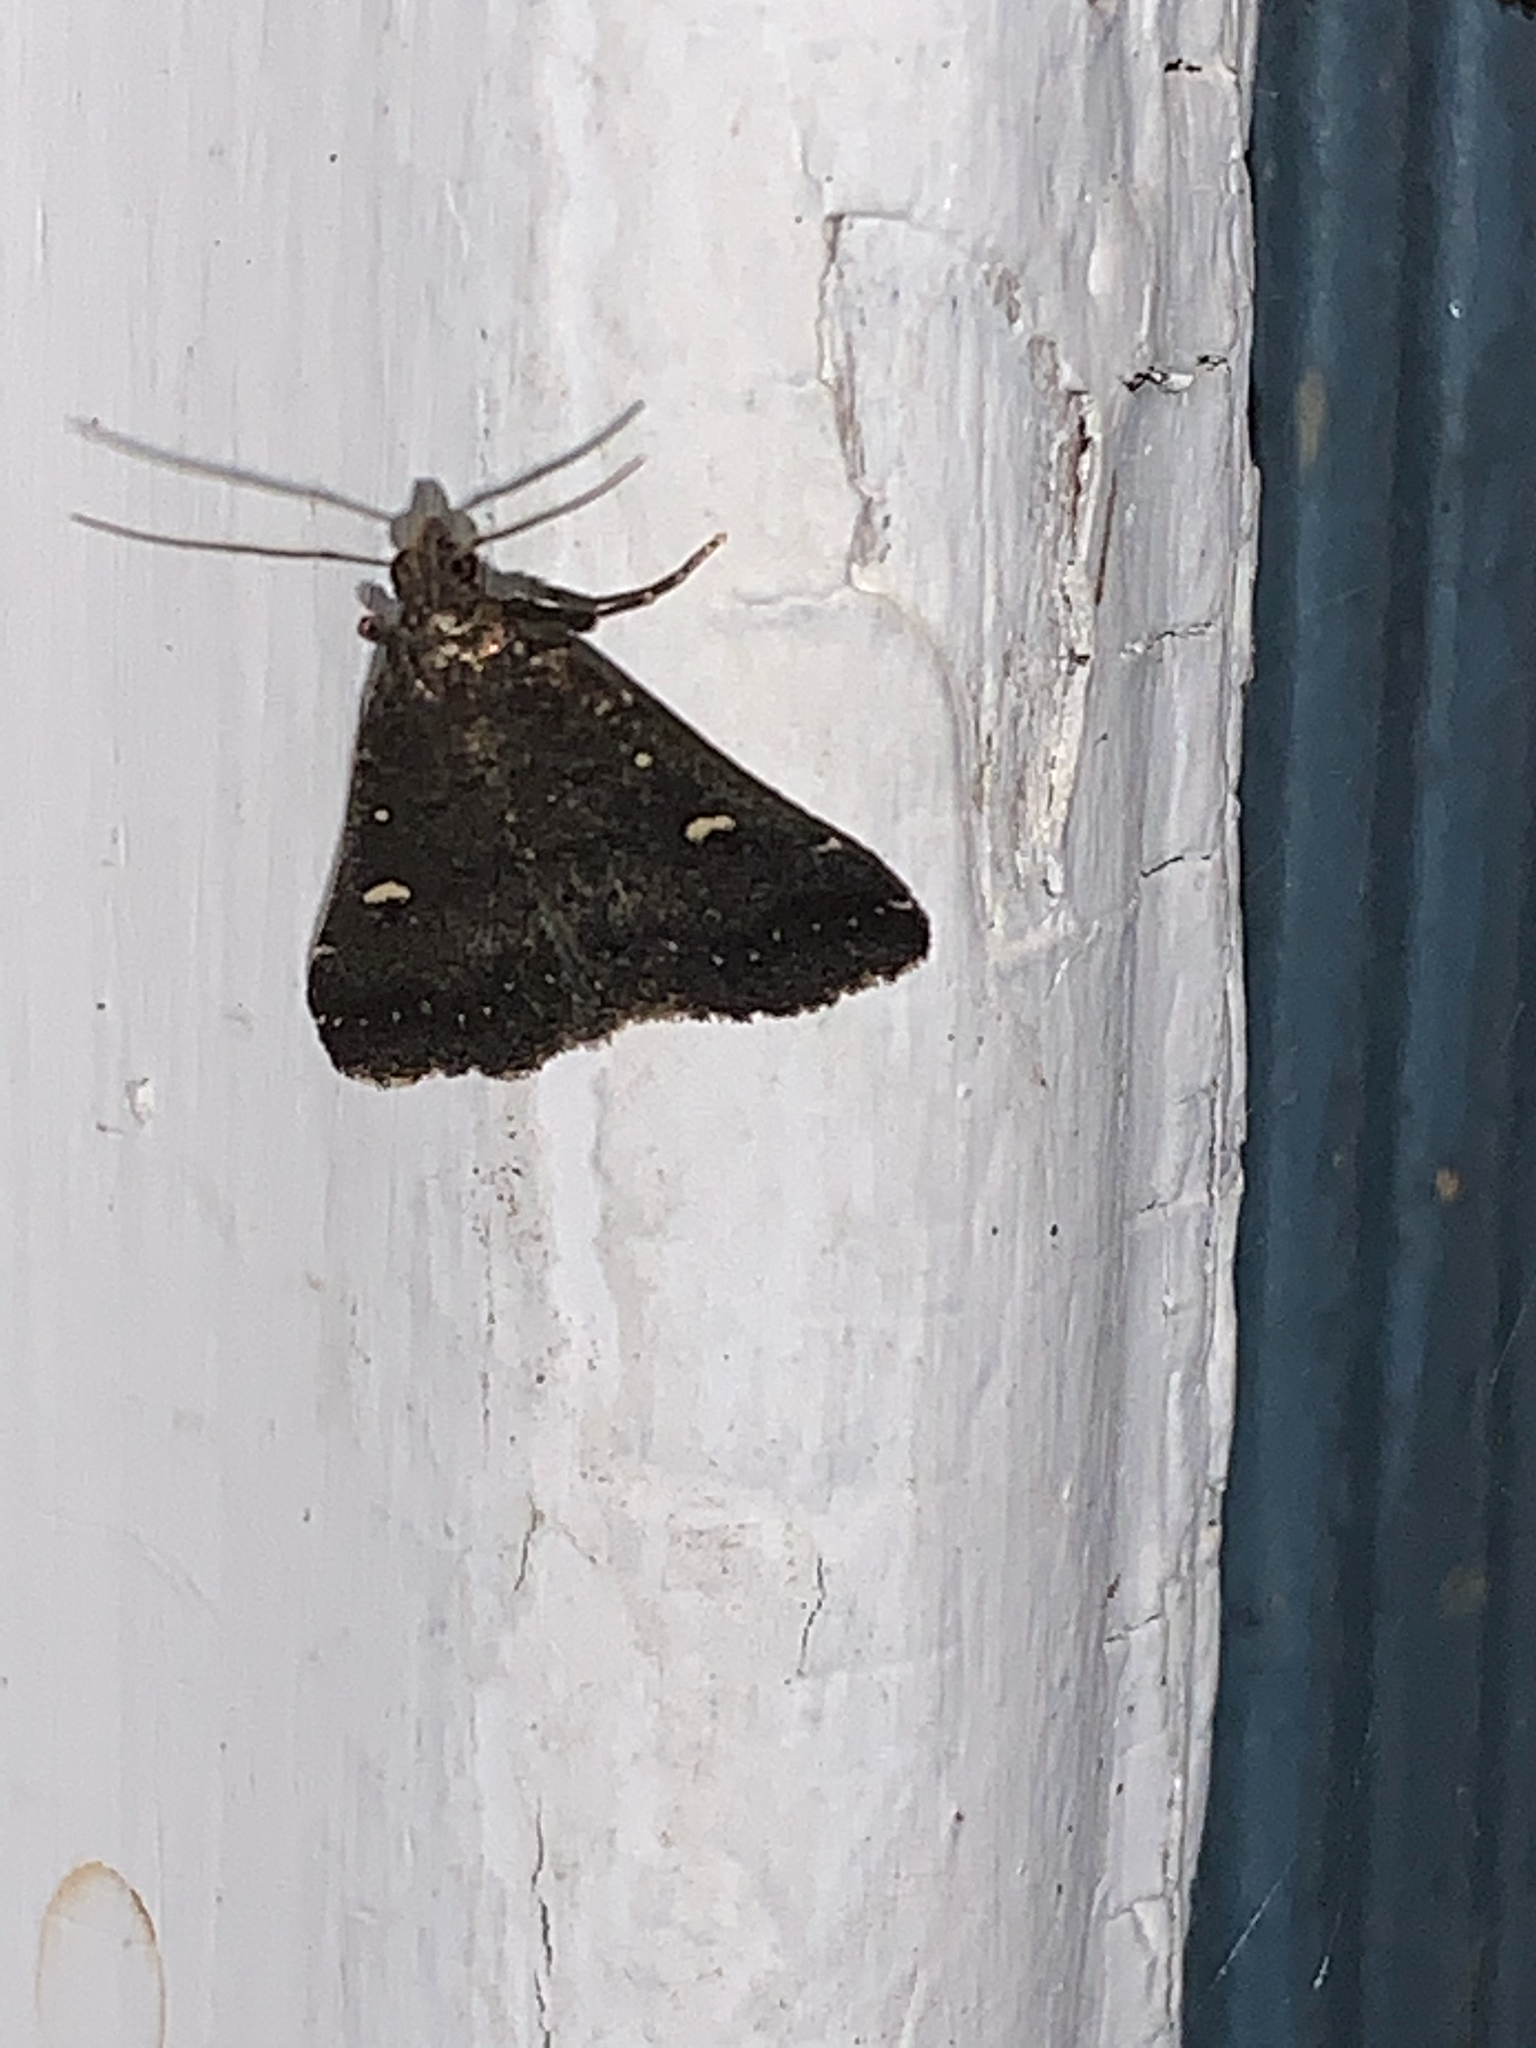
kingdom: Animalia
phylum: Arthropoda
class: Insecta
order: Lepidoptera
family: Erebidae
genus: Tetanolita
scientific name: Tetanolita mynesalis
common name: Smoky tetanolita moth
